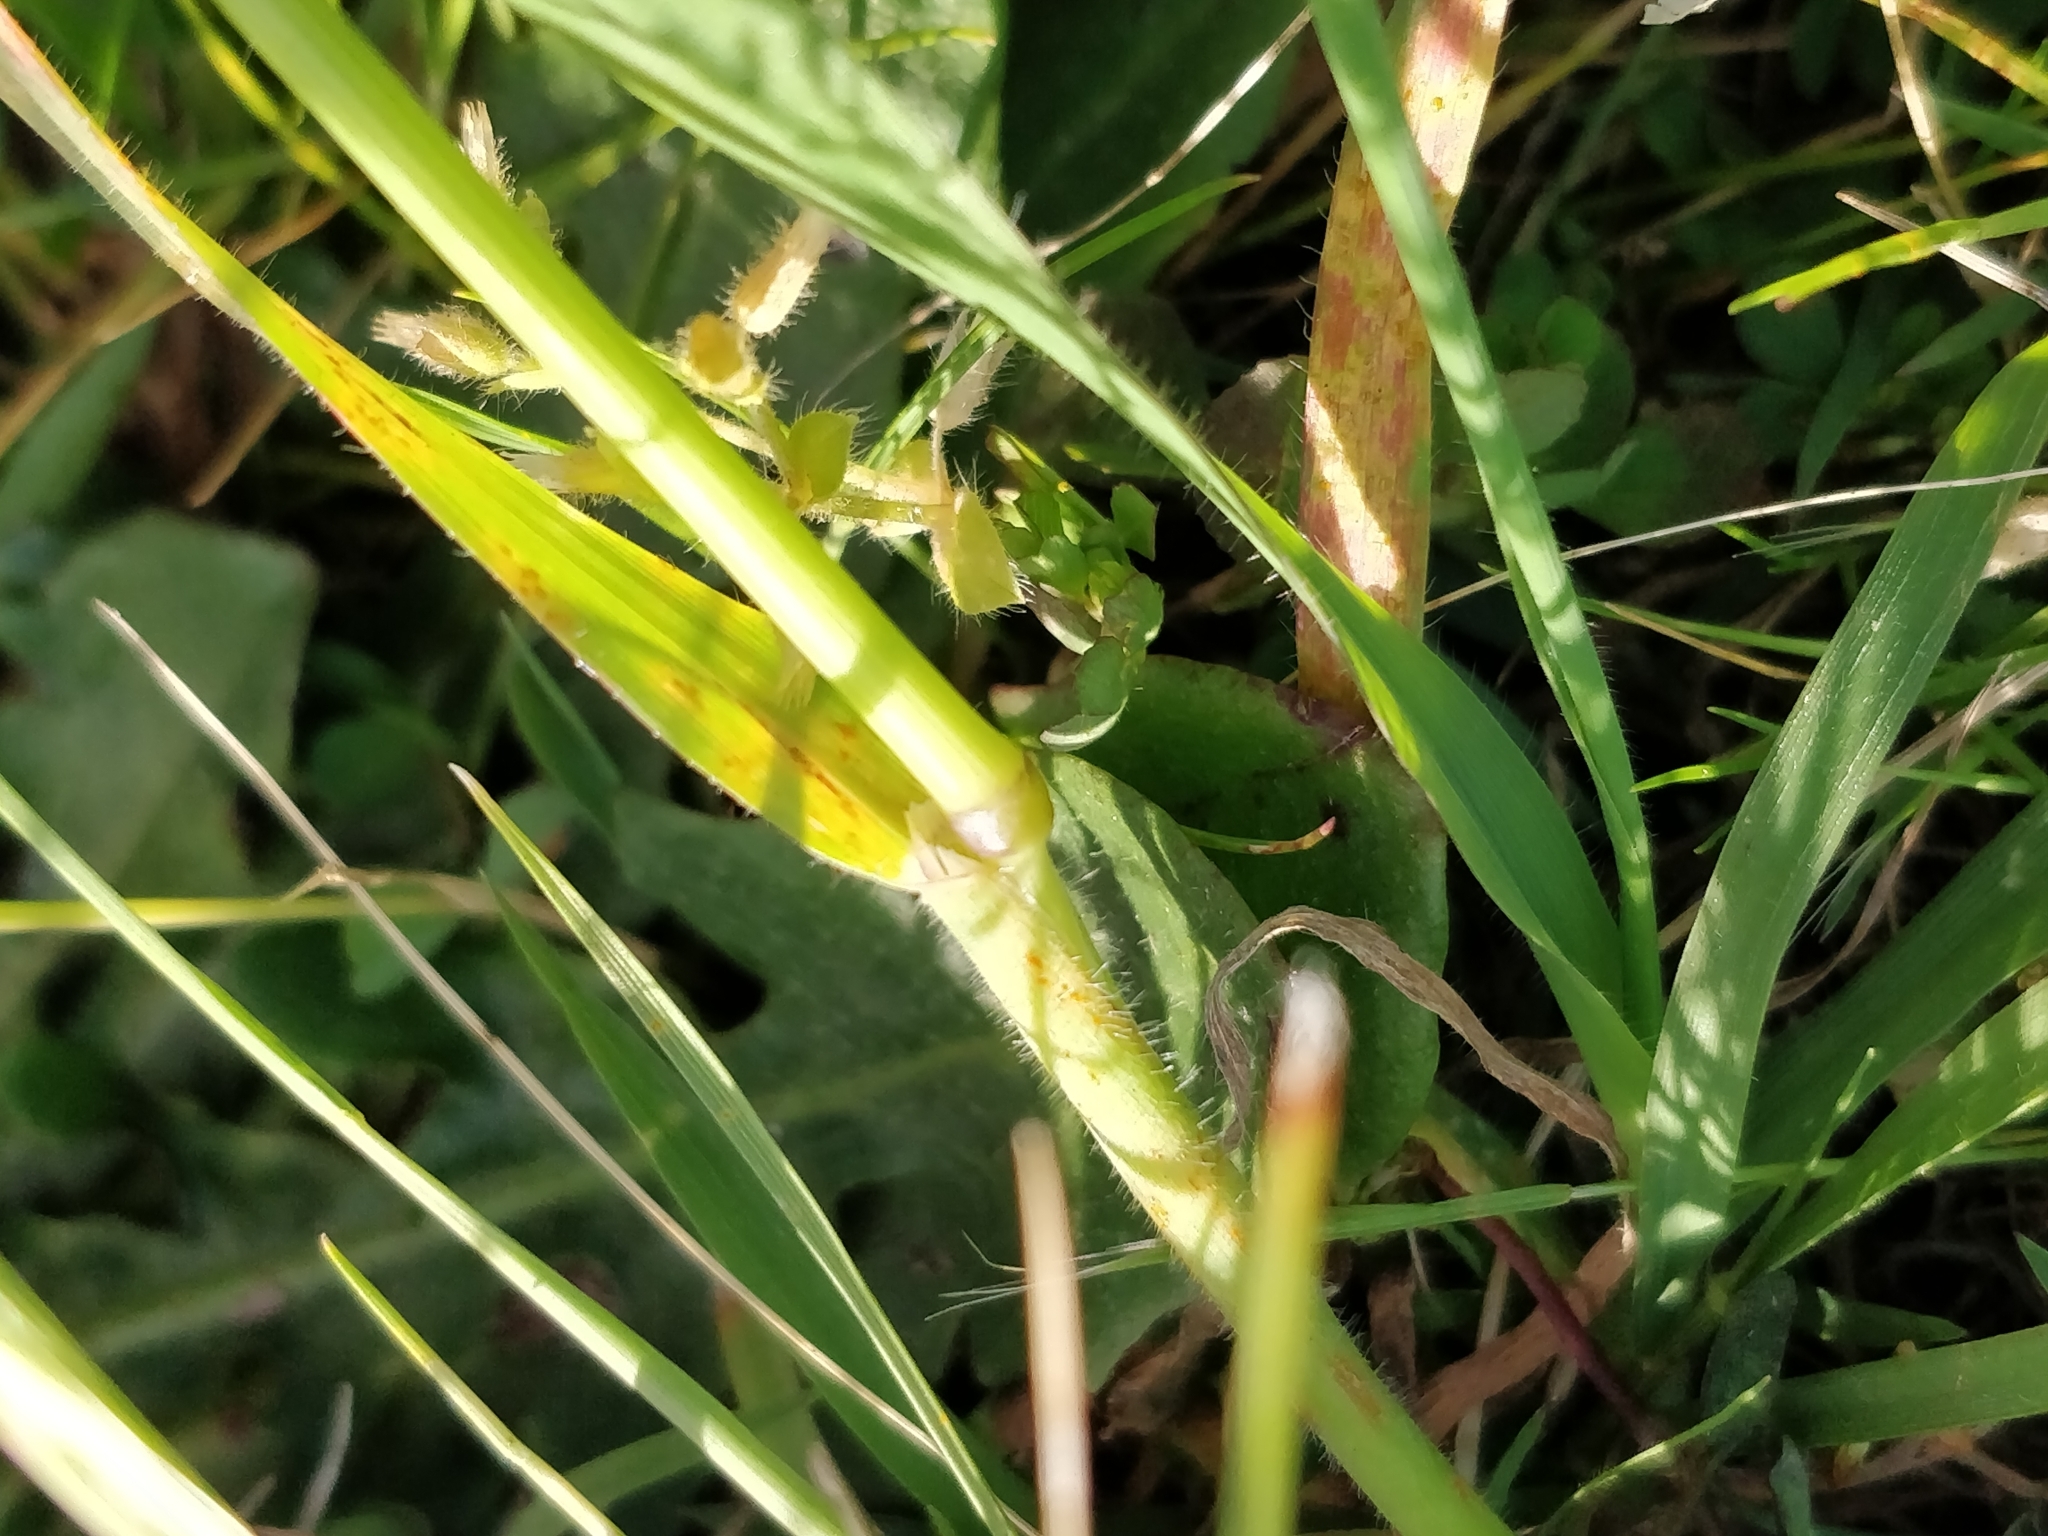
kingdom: Plantae
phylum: Tracheophyta
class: Liliopsida
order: Poales
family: Poaceae
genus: Avena
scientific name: Avena
